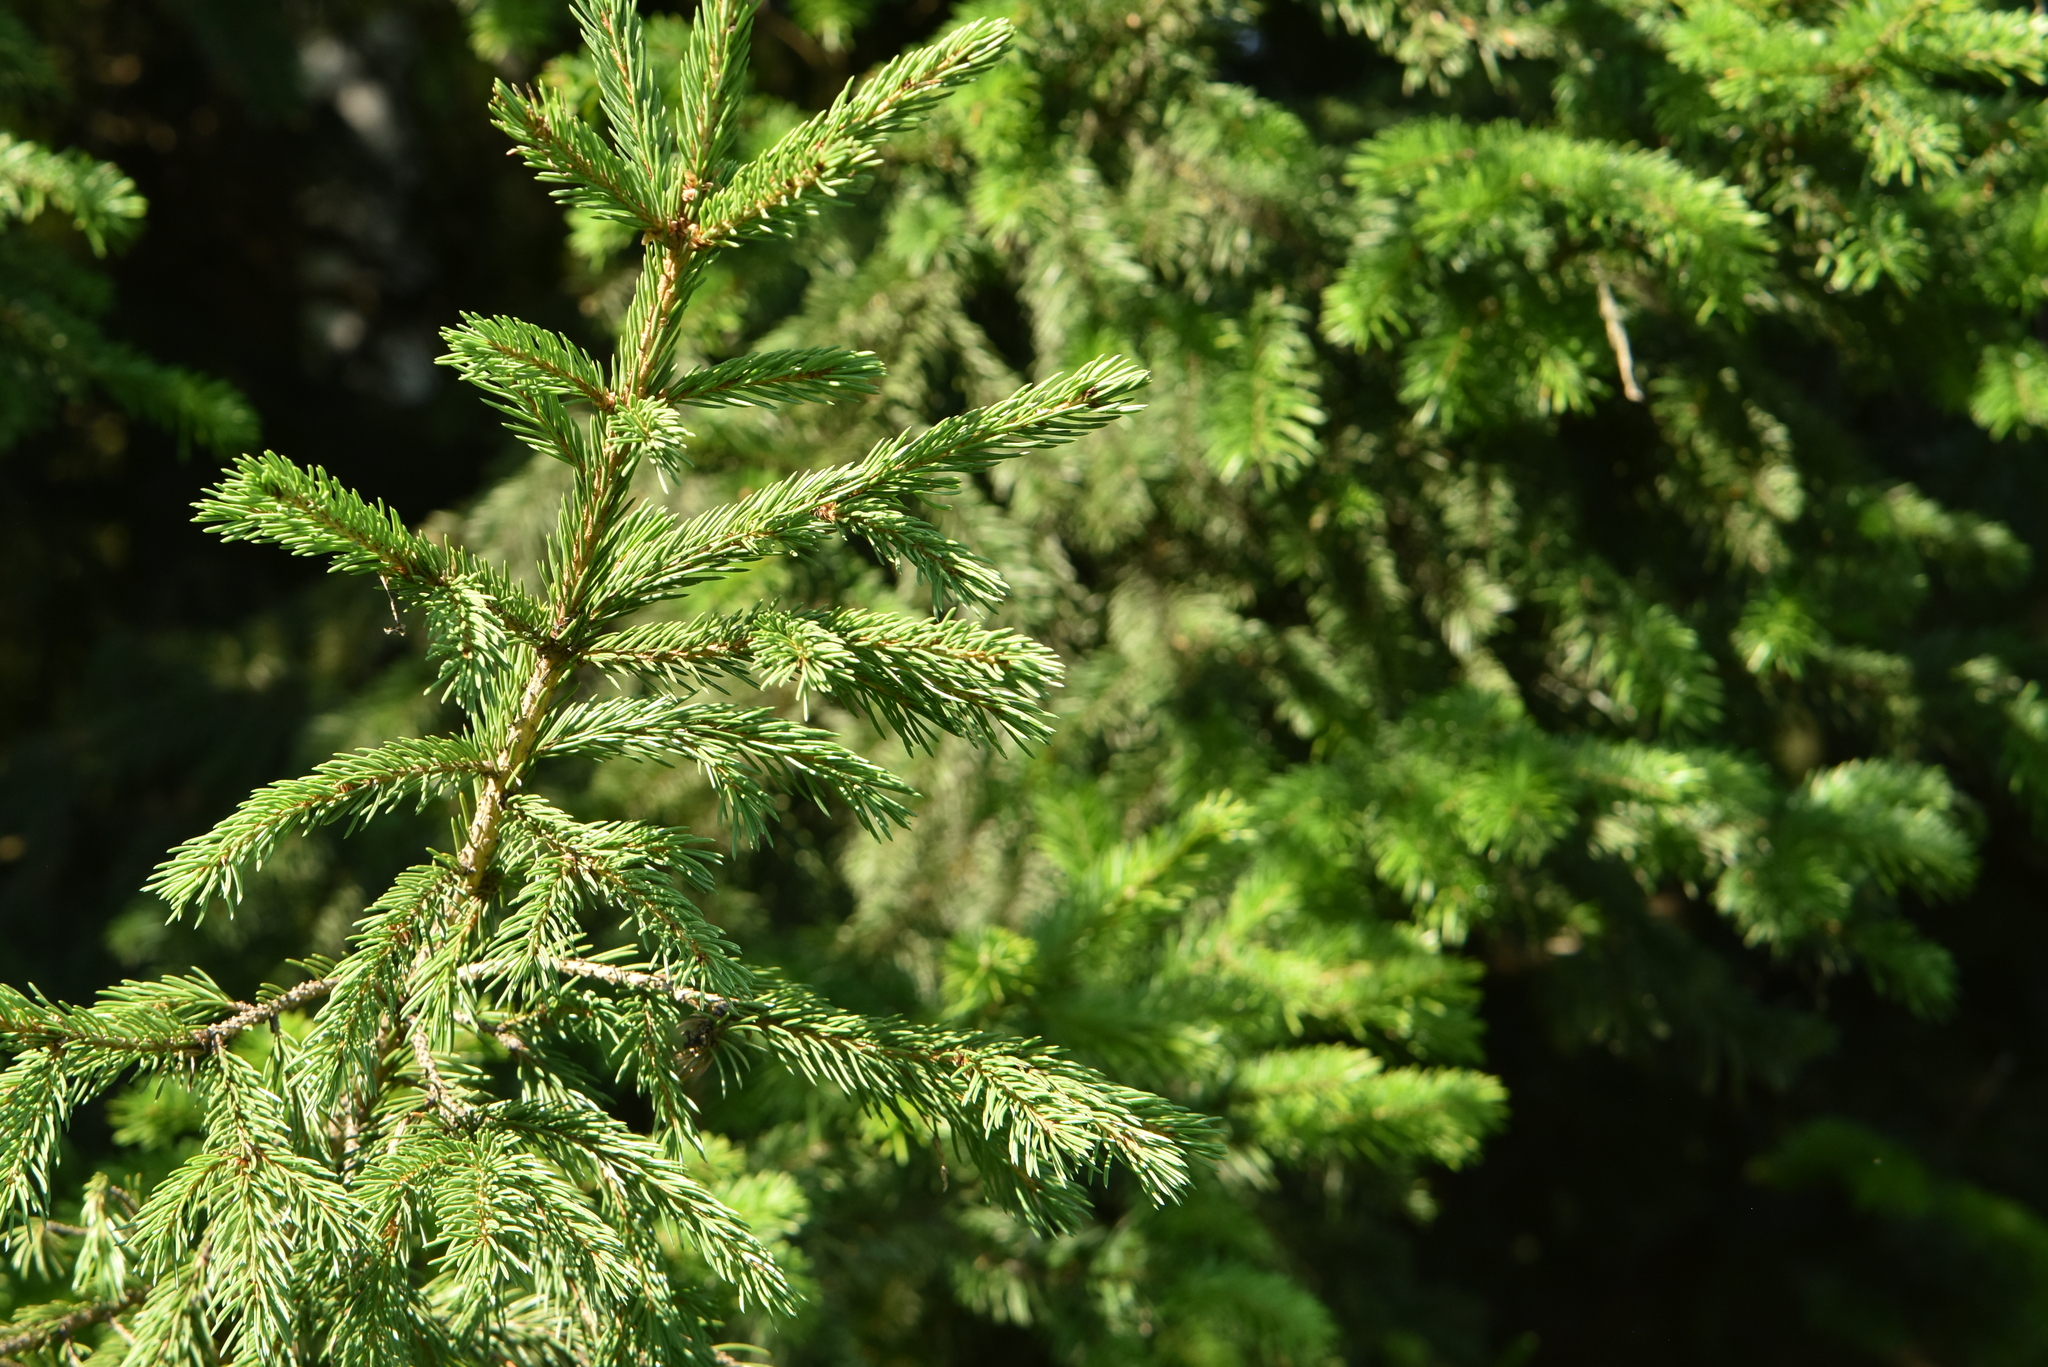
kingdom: Plantae
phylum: Tracheophyta
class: Pinopsida
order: Pinales
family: Pinaceae
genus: Picea
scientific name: Picea obovata
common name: Siberian spruce
